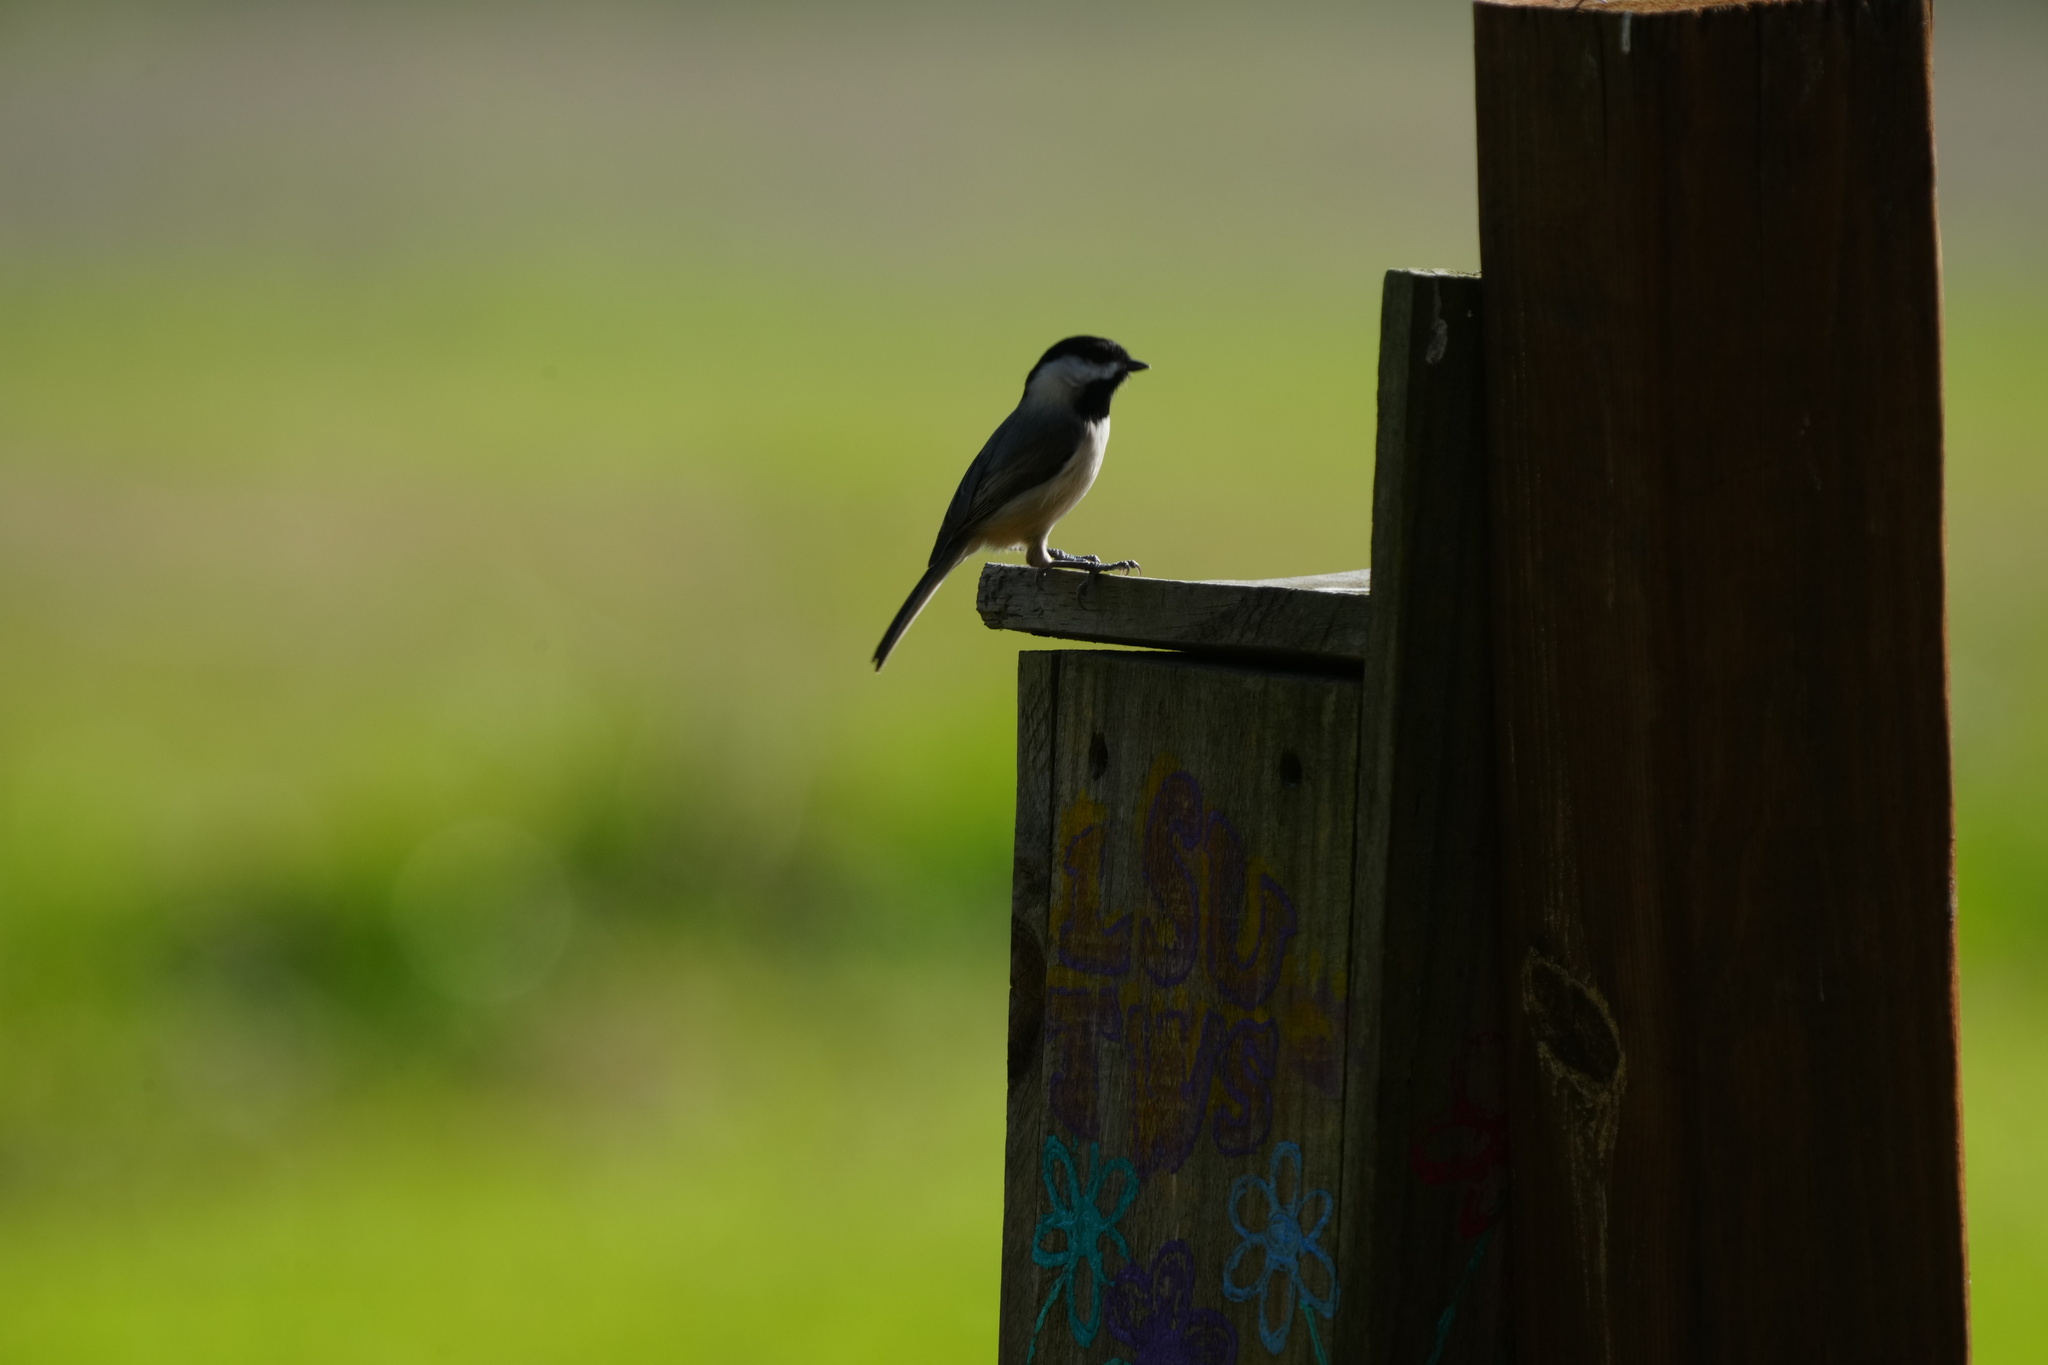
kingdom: Animalia
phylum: Chordata
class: Aves
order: Passeriformes
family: Paridae
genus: Poecile
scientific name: Poecile carolinensis
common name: Carolina chickadee
